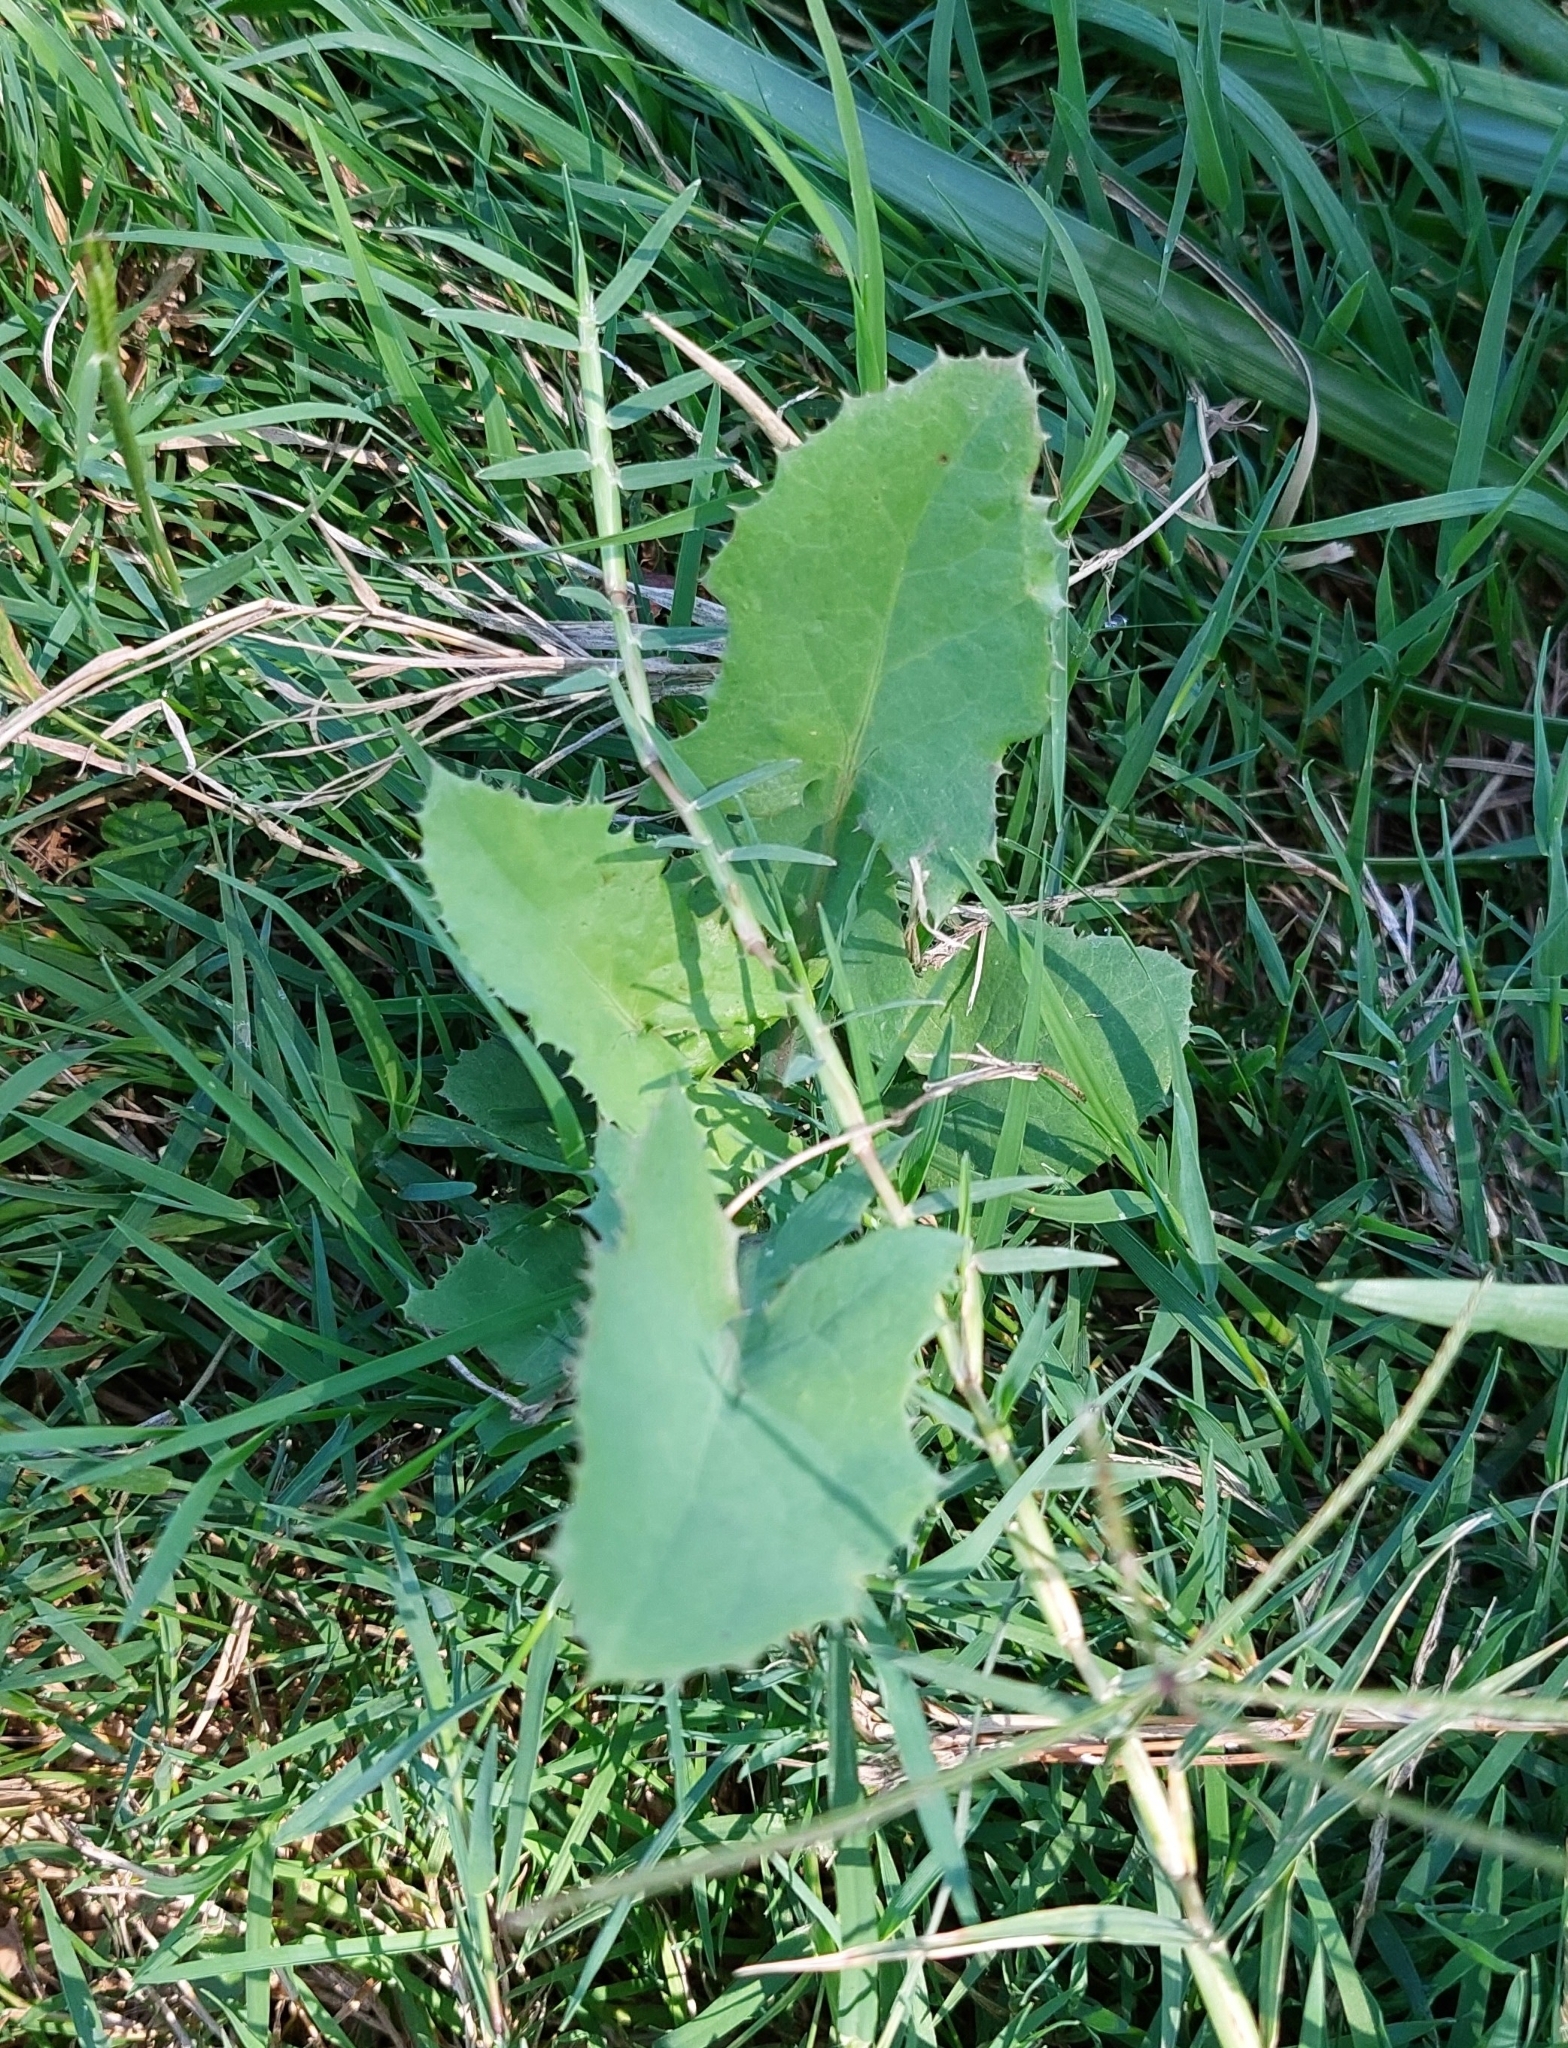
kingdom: Plantae
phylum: Tracheophyta
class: Magnoliopsida
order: Asterales
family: Asteraceae
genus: Sonchus
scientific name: Sonchus oleraceus
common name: Common sowthistle
